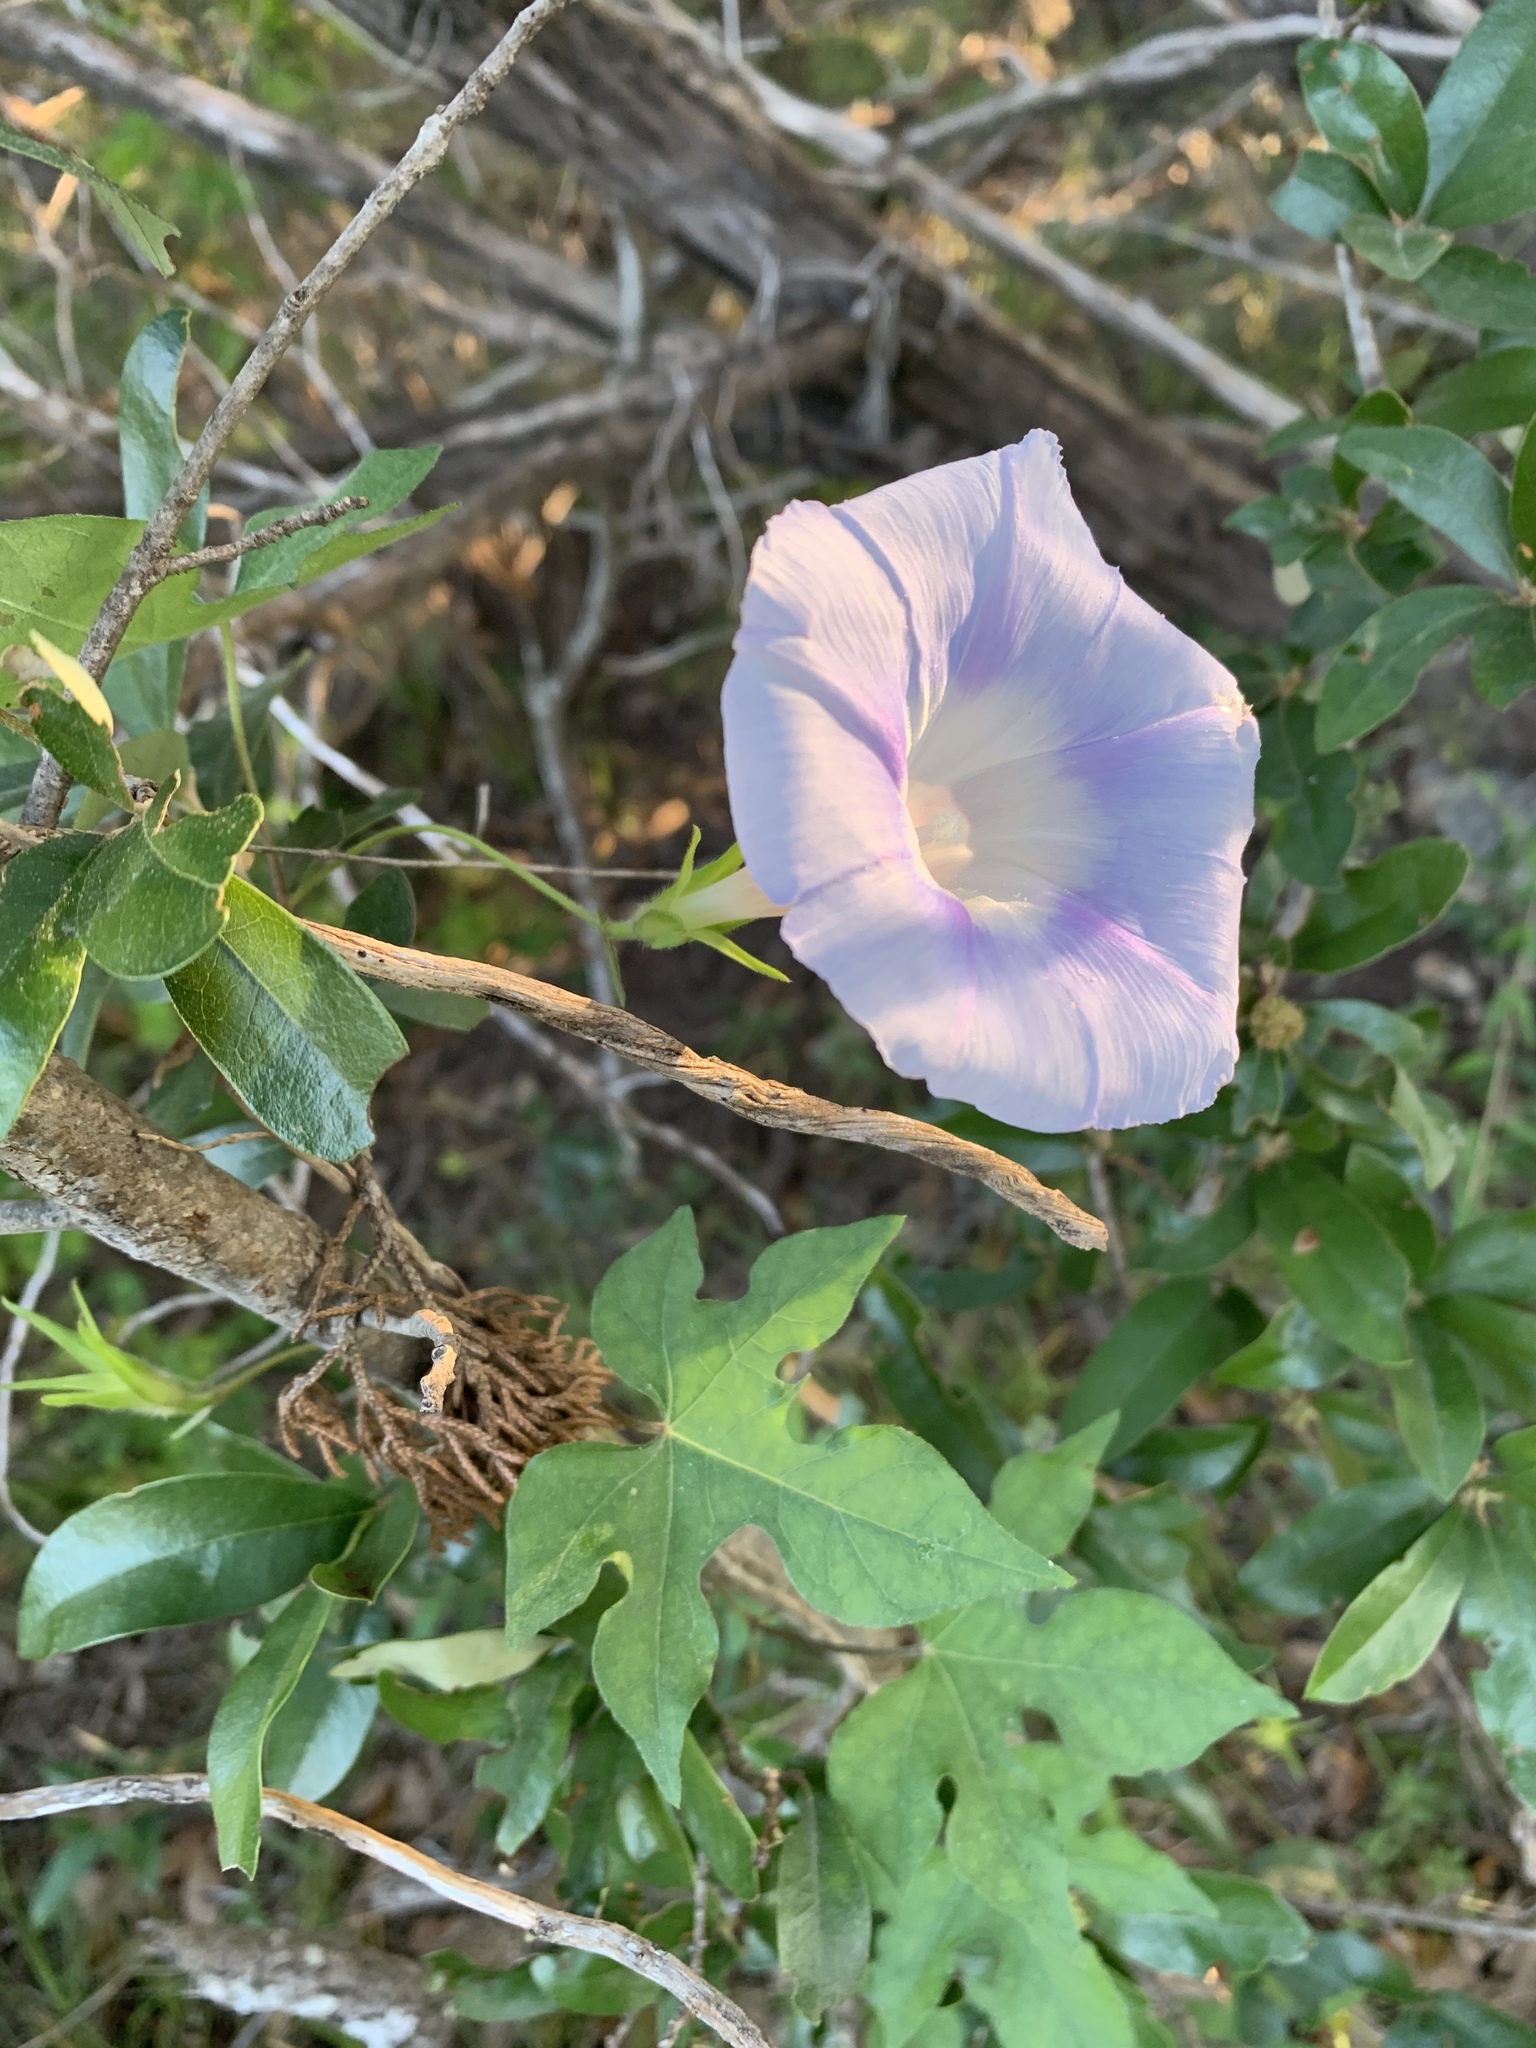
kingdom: Plantae
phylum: Tracheophyta
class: Magnoliopsida
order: Solanales
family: Convolvulaceae
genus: Ipomoea
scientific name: Ipomoea lindheimeri
